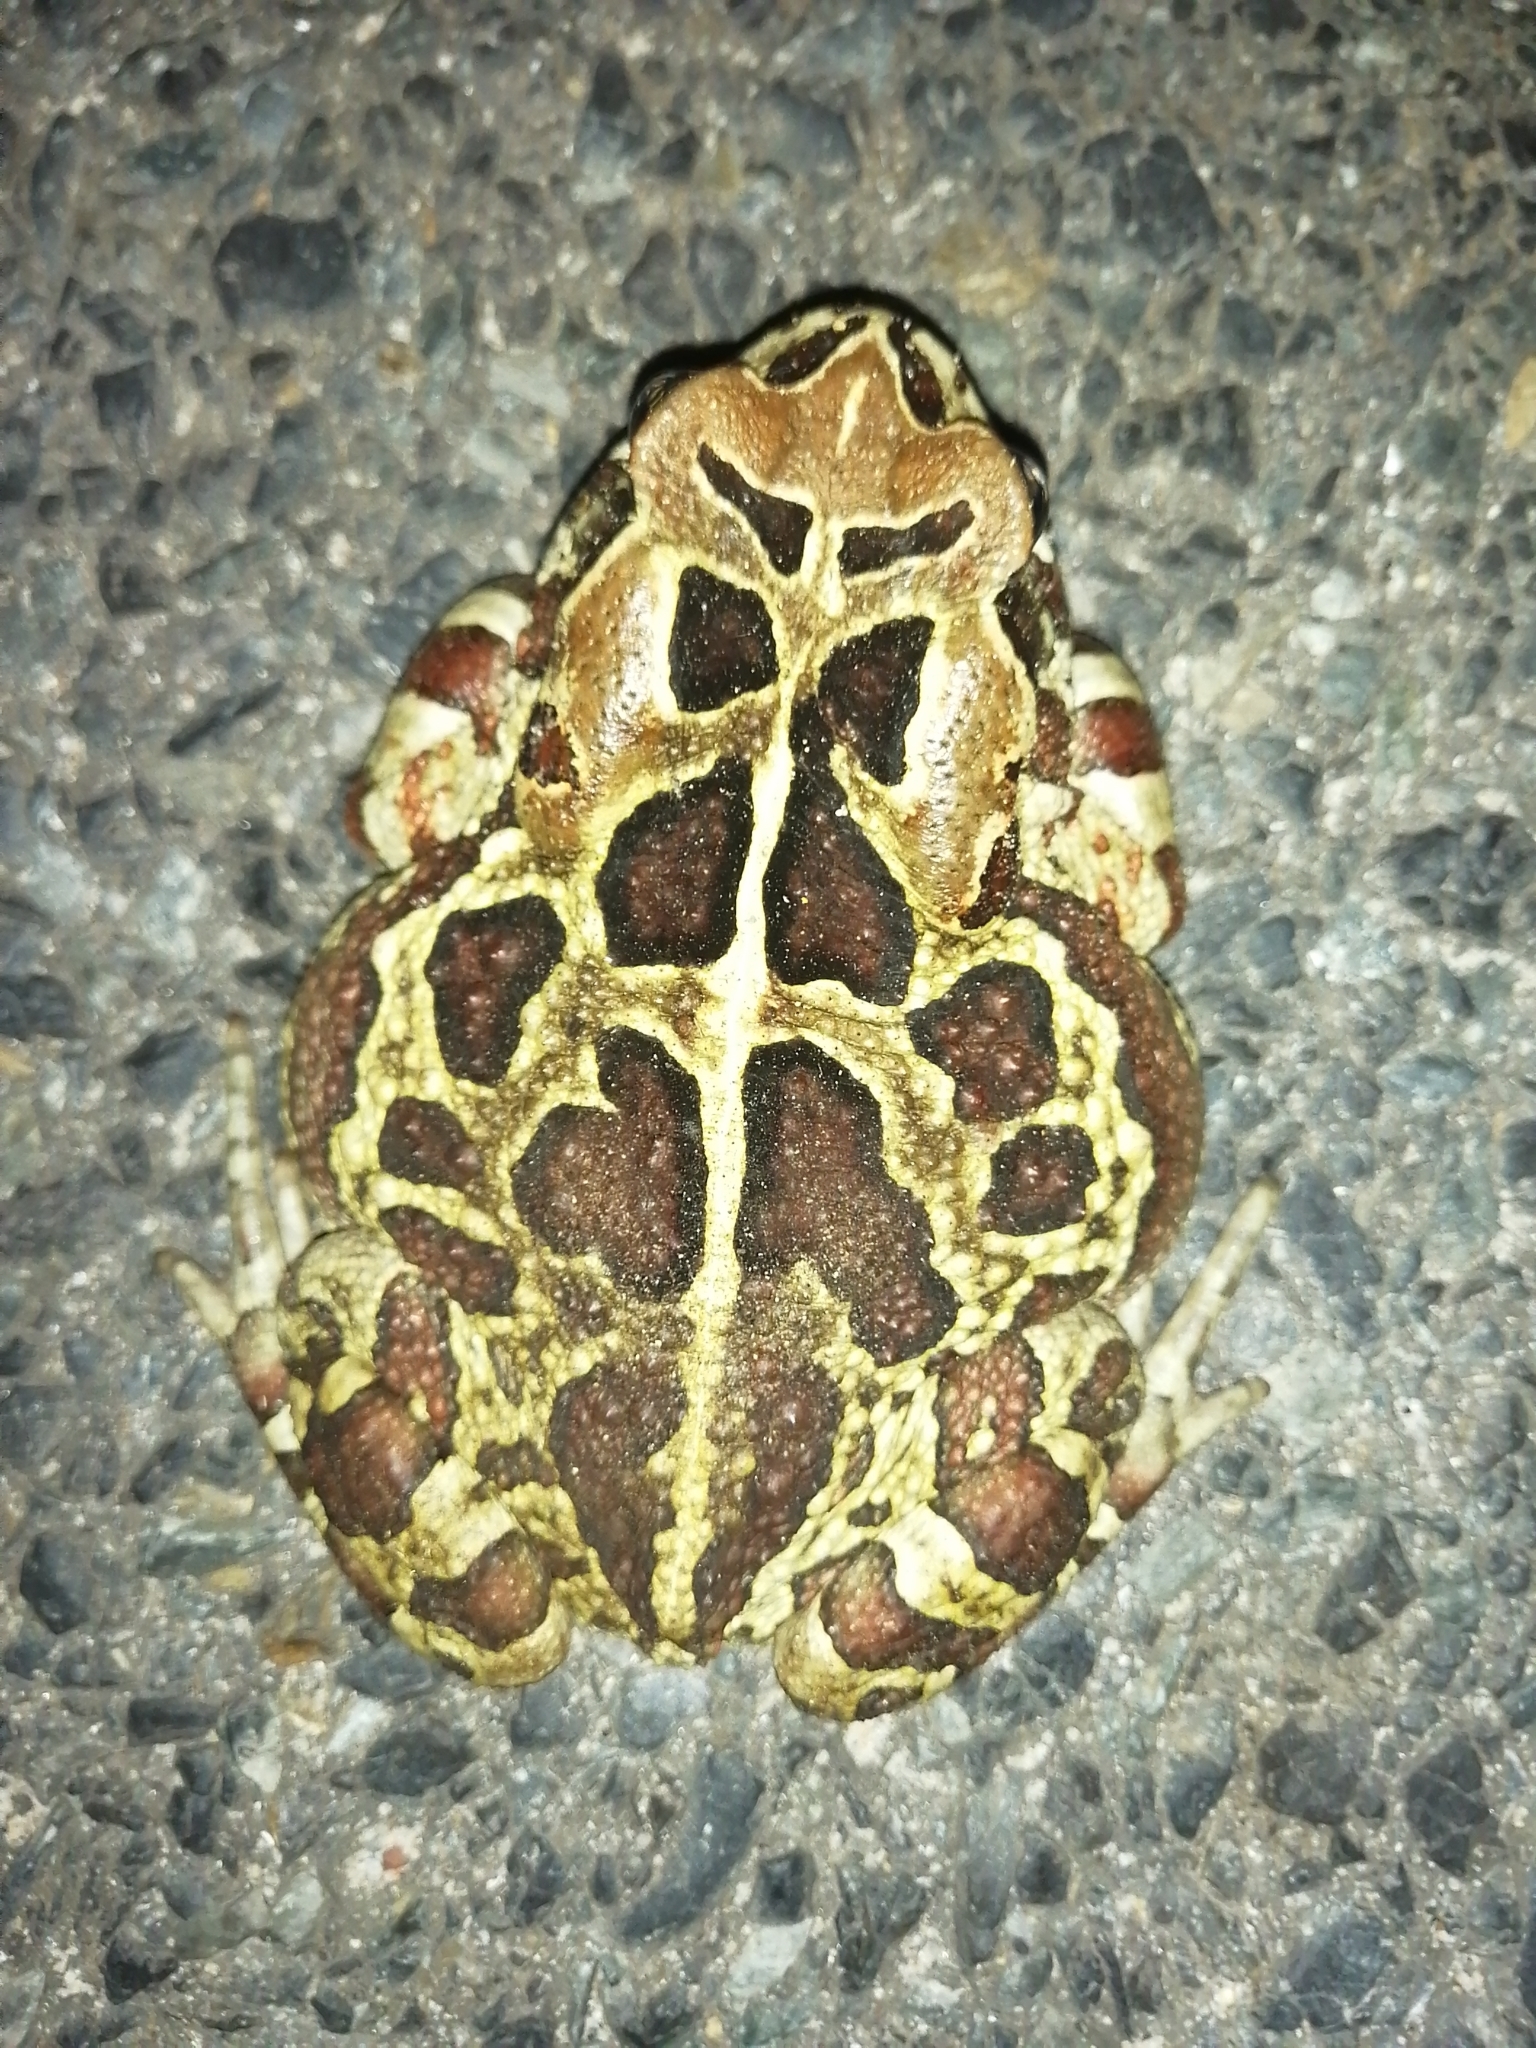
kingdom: Animalia
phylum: Chordata
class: Amphibia
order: Anura
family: Bufonidae
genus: Sclerophrys
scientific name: Sclerophrys pantherina
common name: Panther toad
